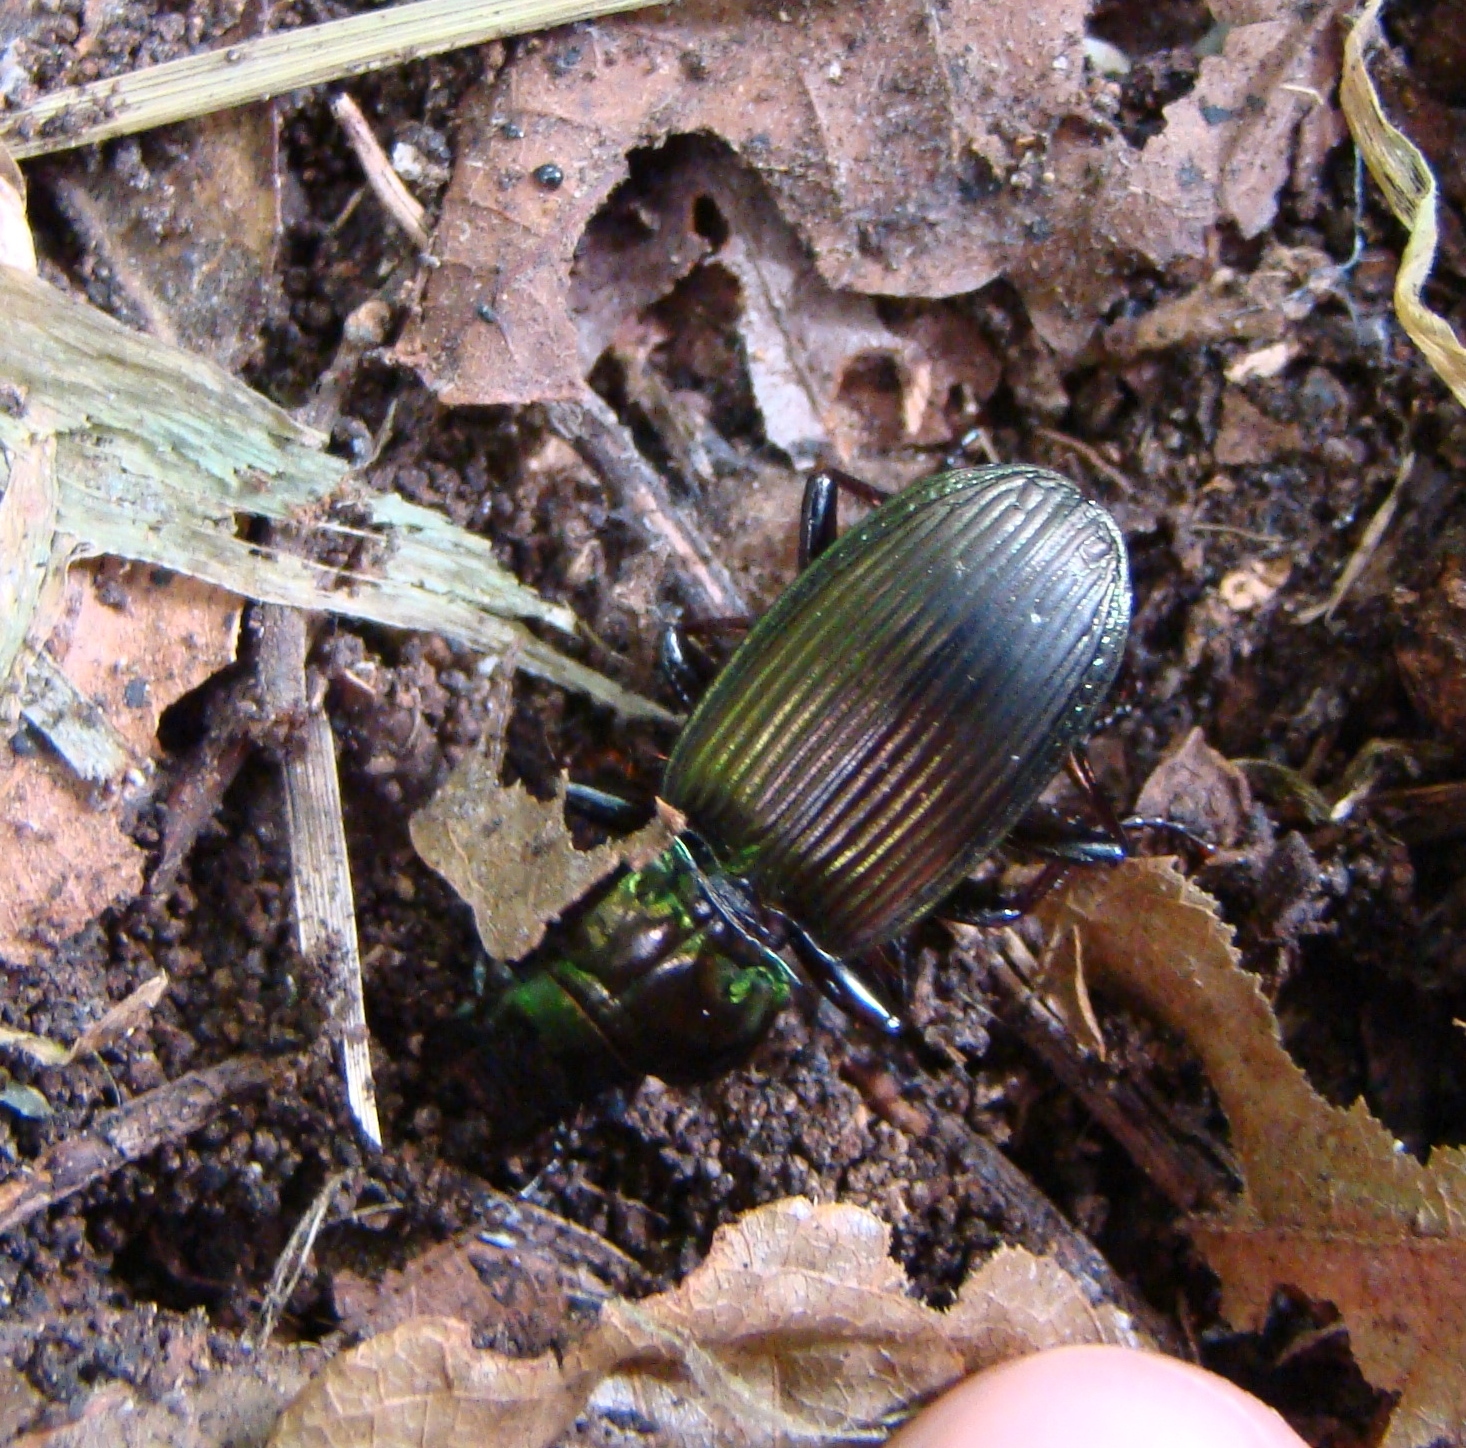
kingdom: Animalia
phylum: Arthropoda
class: Insecta
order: Coleoptera
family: Carabidae
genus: Megadromus
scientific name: Megadromus capito
